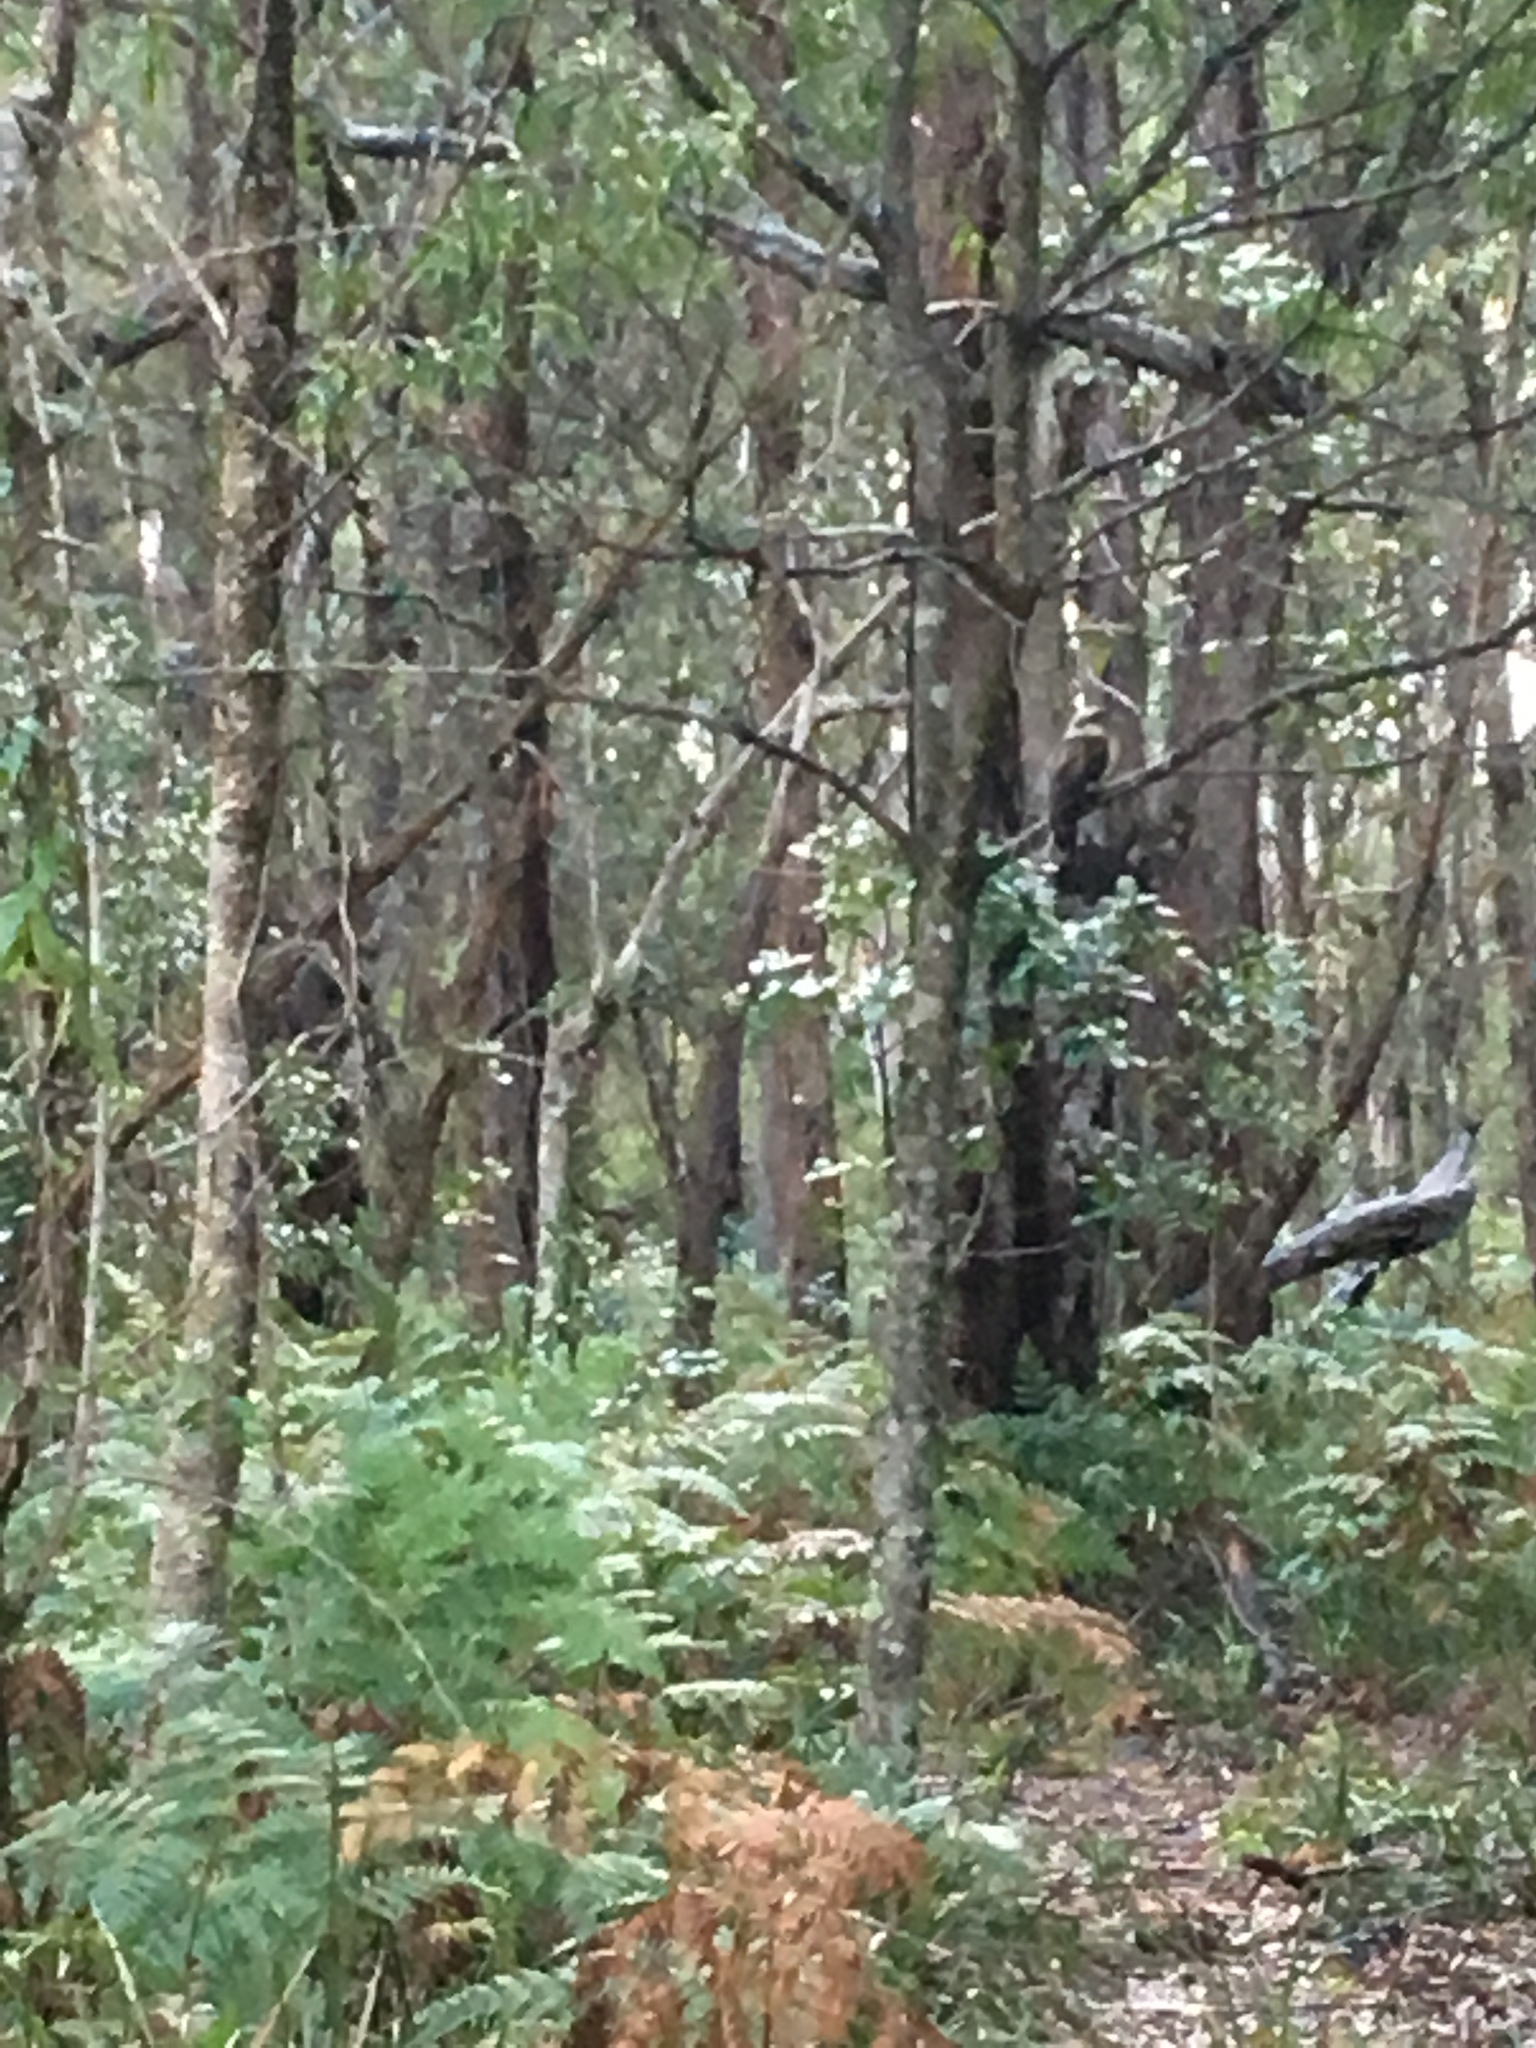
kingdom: Animalia
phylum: Chordata
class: Aves
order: Coraciiformes
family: Alcedinidae
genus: Dacelo
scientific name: Dacelo novaeguineae
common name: Laughing kookaburra
